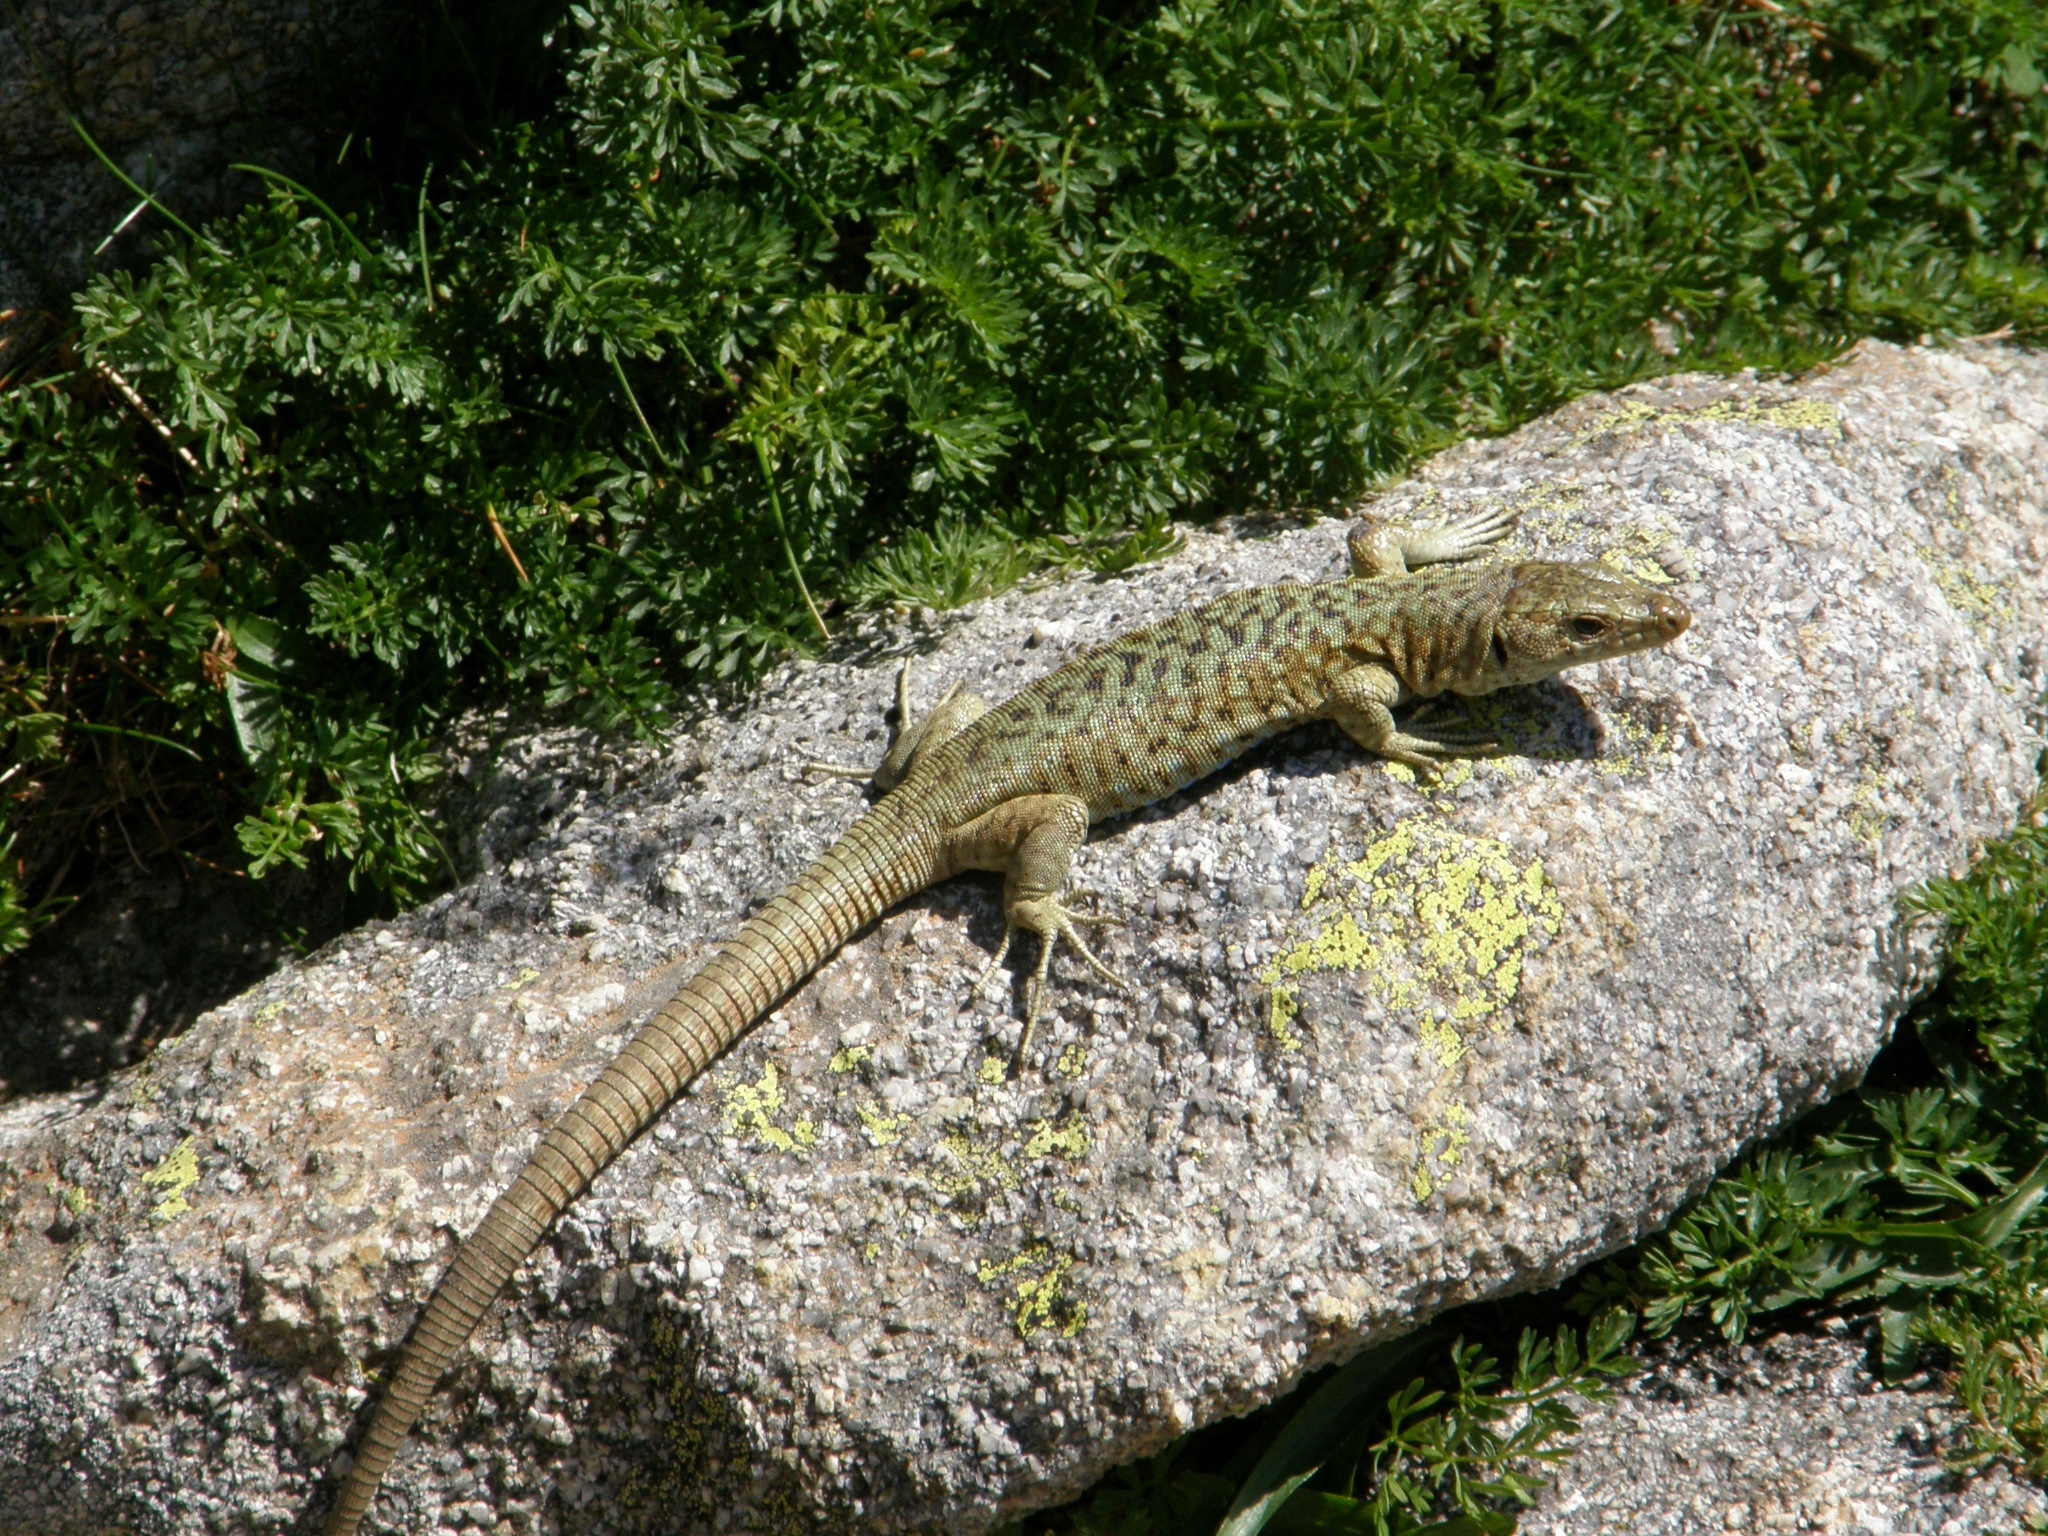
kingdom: Animalia
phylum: Chordata
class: Squamata
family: Lacertidae
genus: Archaeolacerta
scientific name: Archaeolacerta bedriagae
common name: Bedriaga's rock lizard
